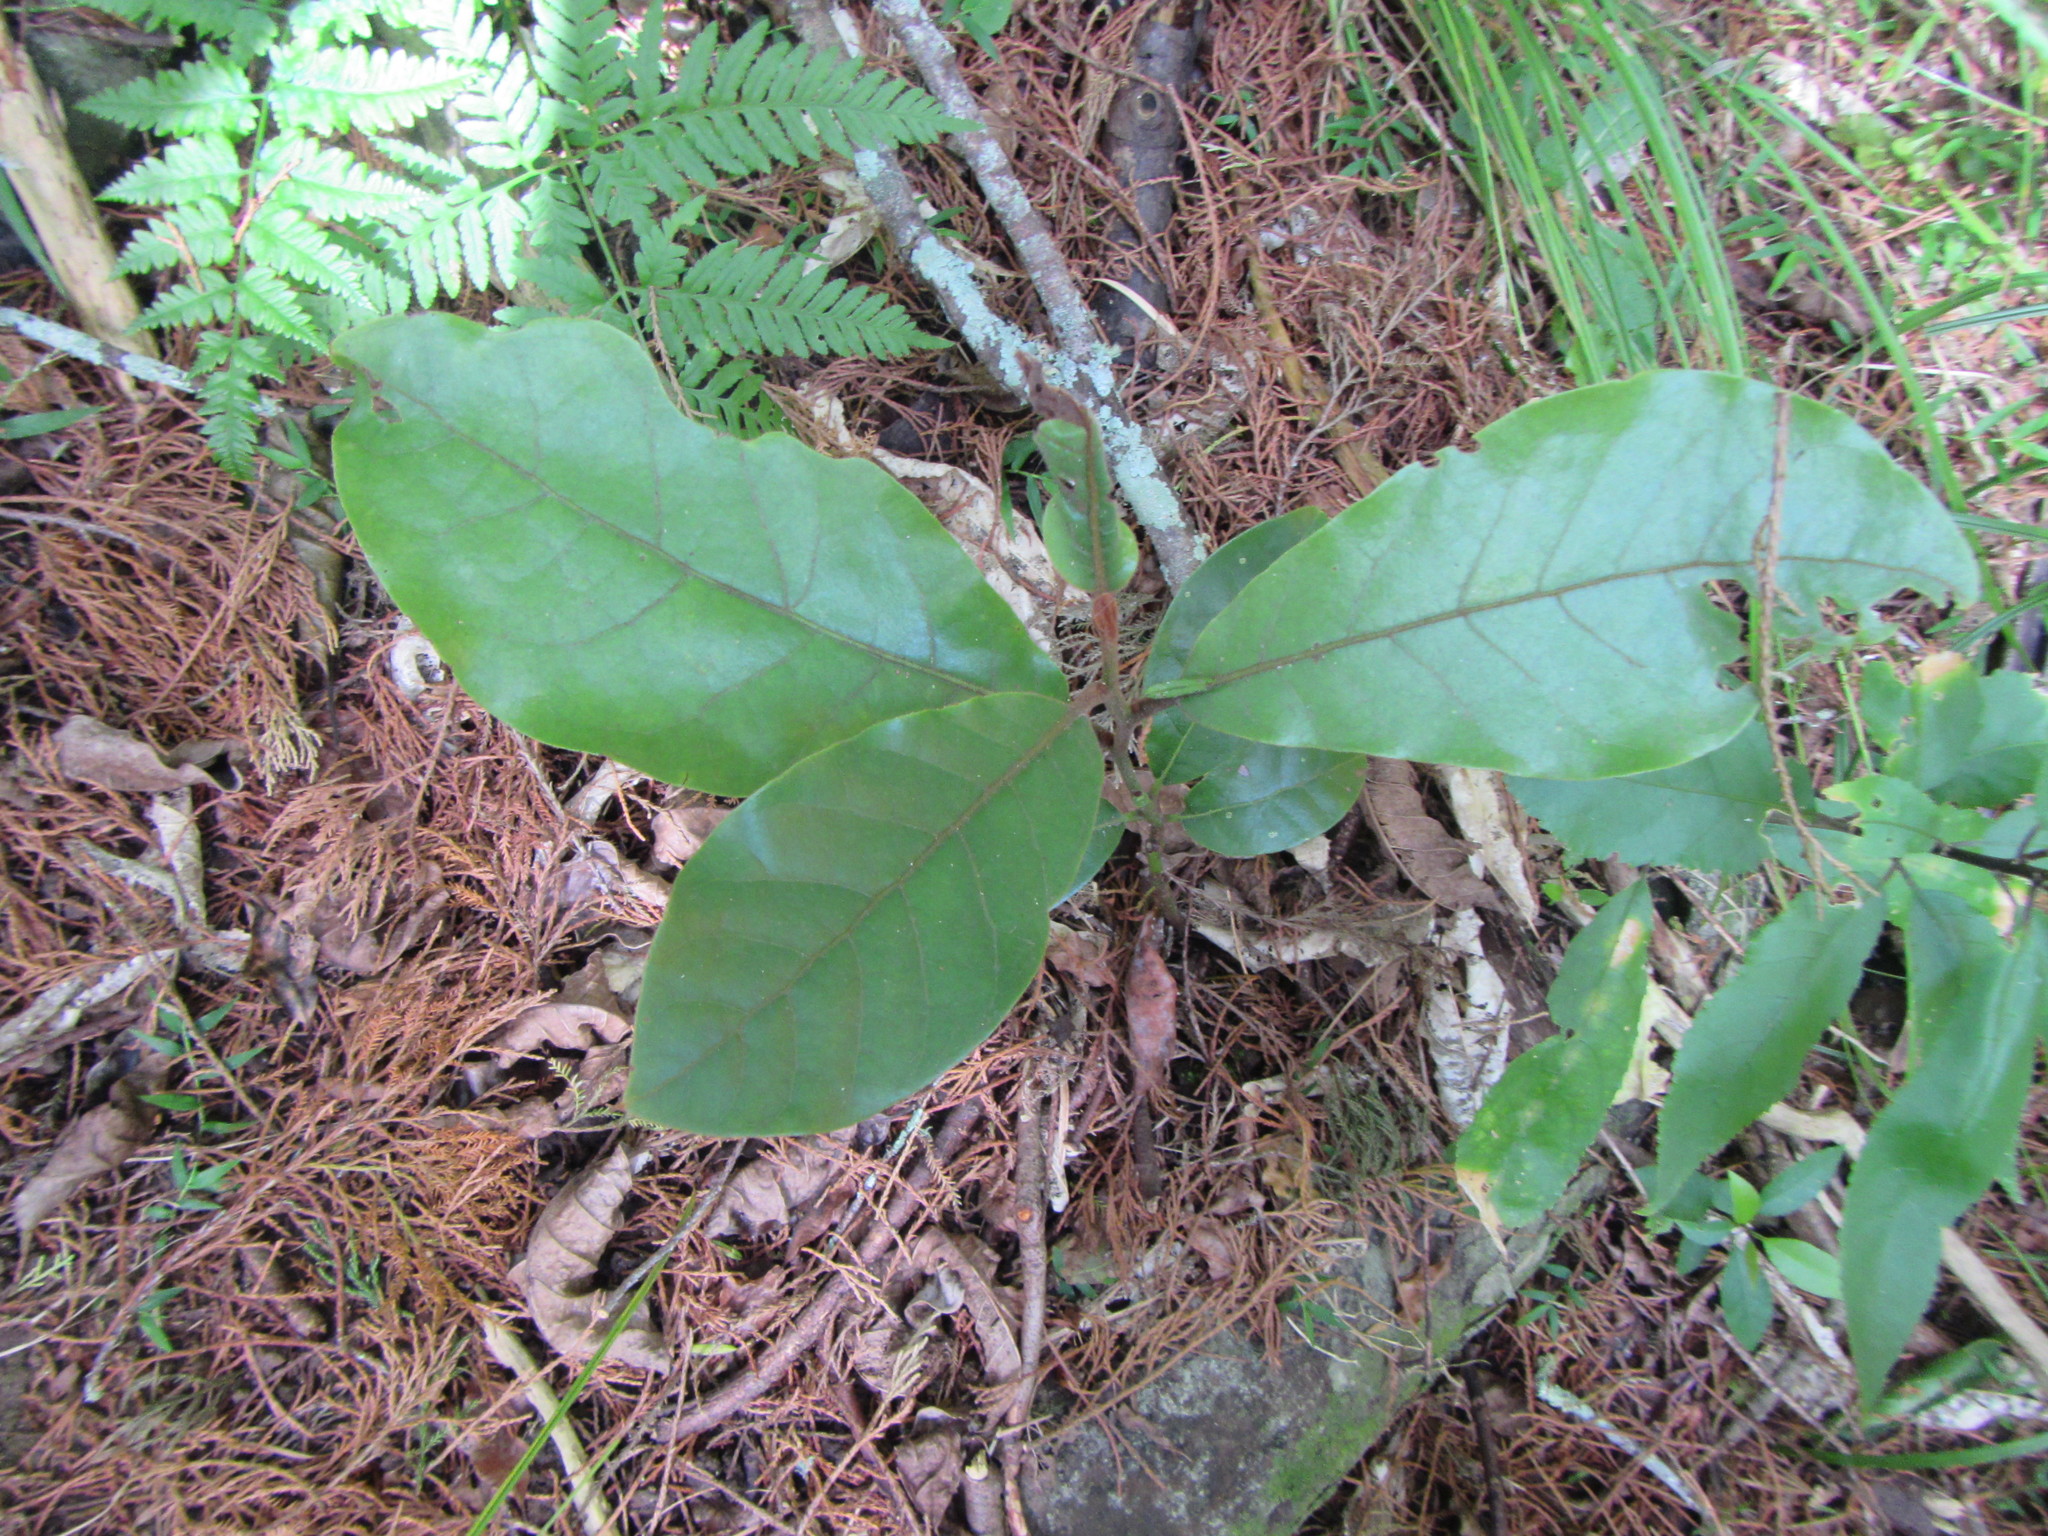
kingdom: Plantae
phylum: Tracheophyta
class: Magnoliopsida
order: Laurales
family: Lauraceae
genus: Beilschmiedia
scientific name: Beilschmiedia tarairi
